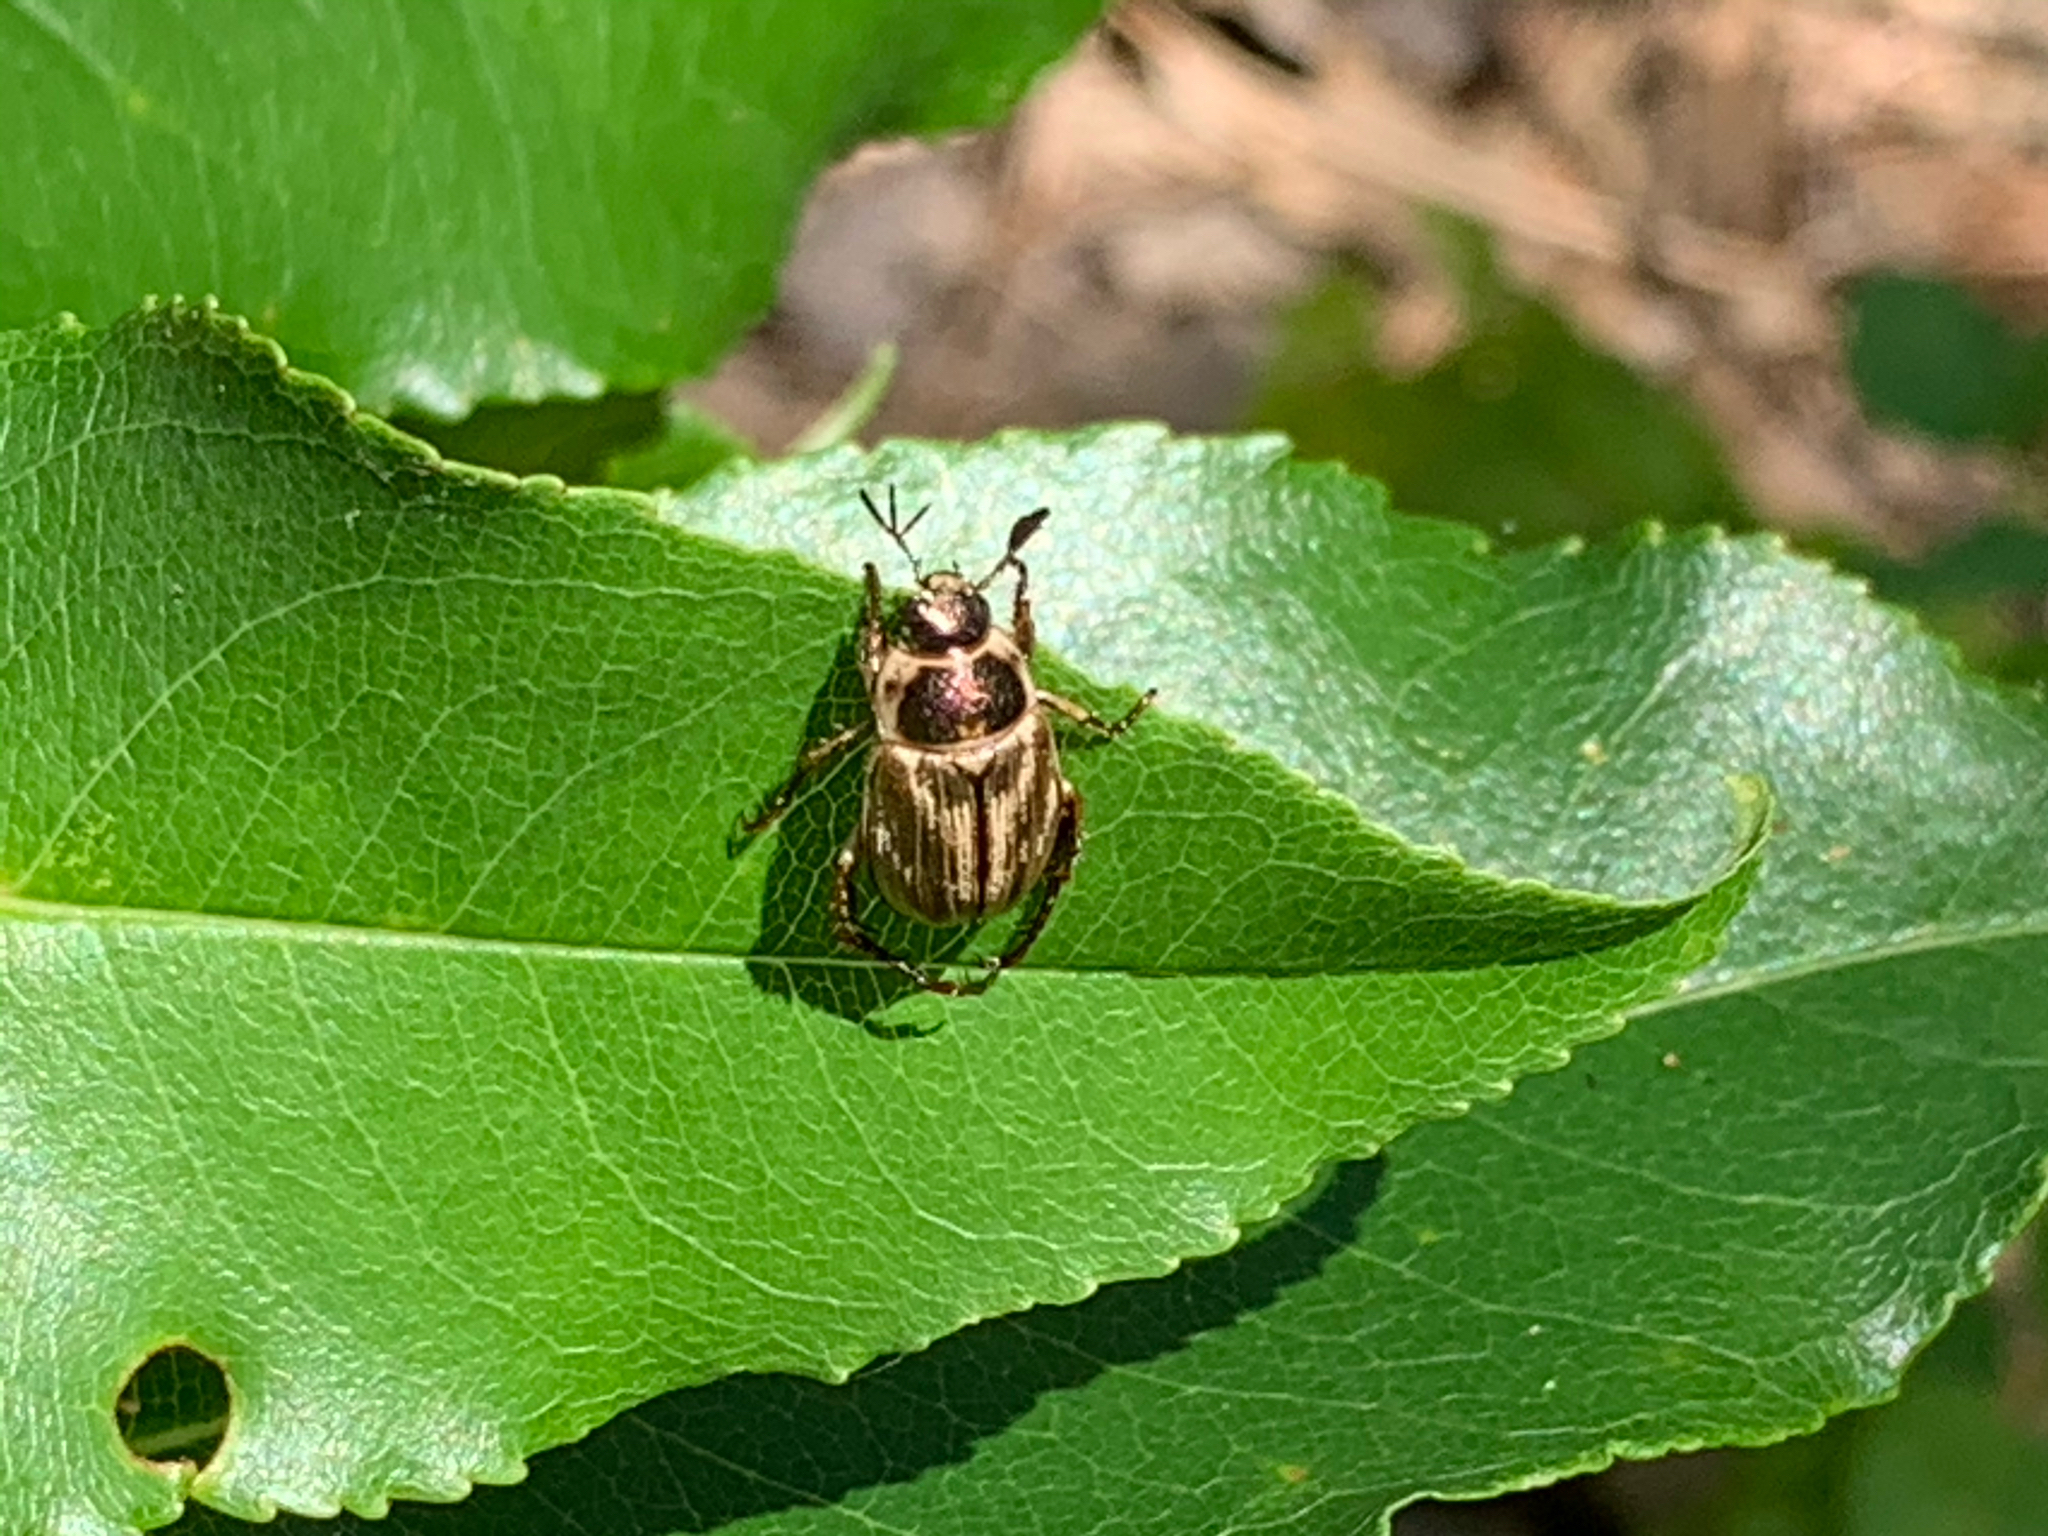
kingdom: Animalia
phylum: Arthropoda
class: Insecta
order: Coleoptera
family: Scarabaeidae
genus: Exomala
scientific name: Exomala orientalis
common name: Oriental beetle
